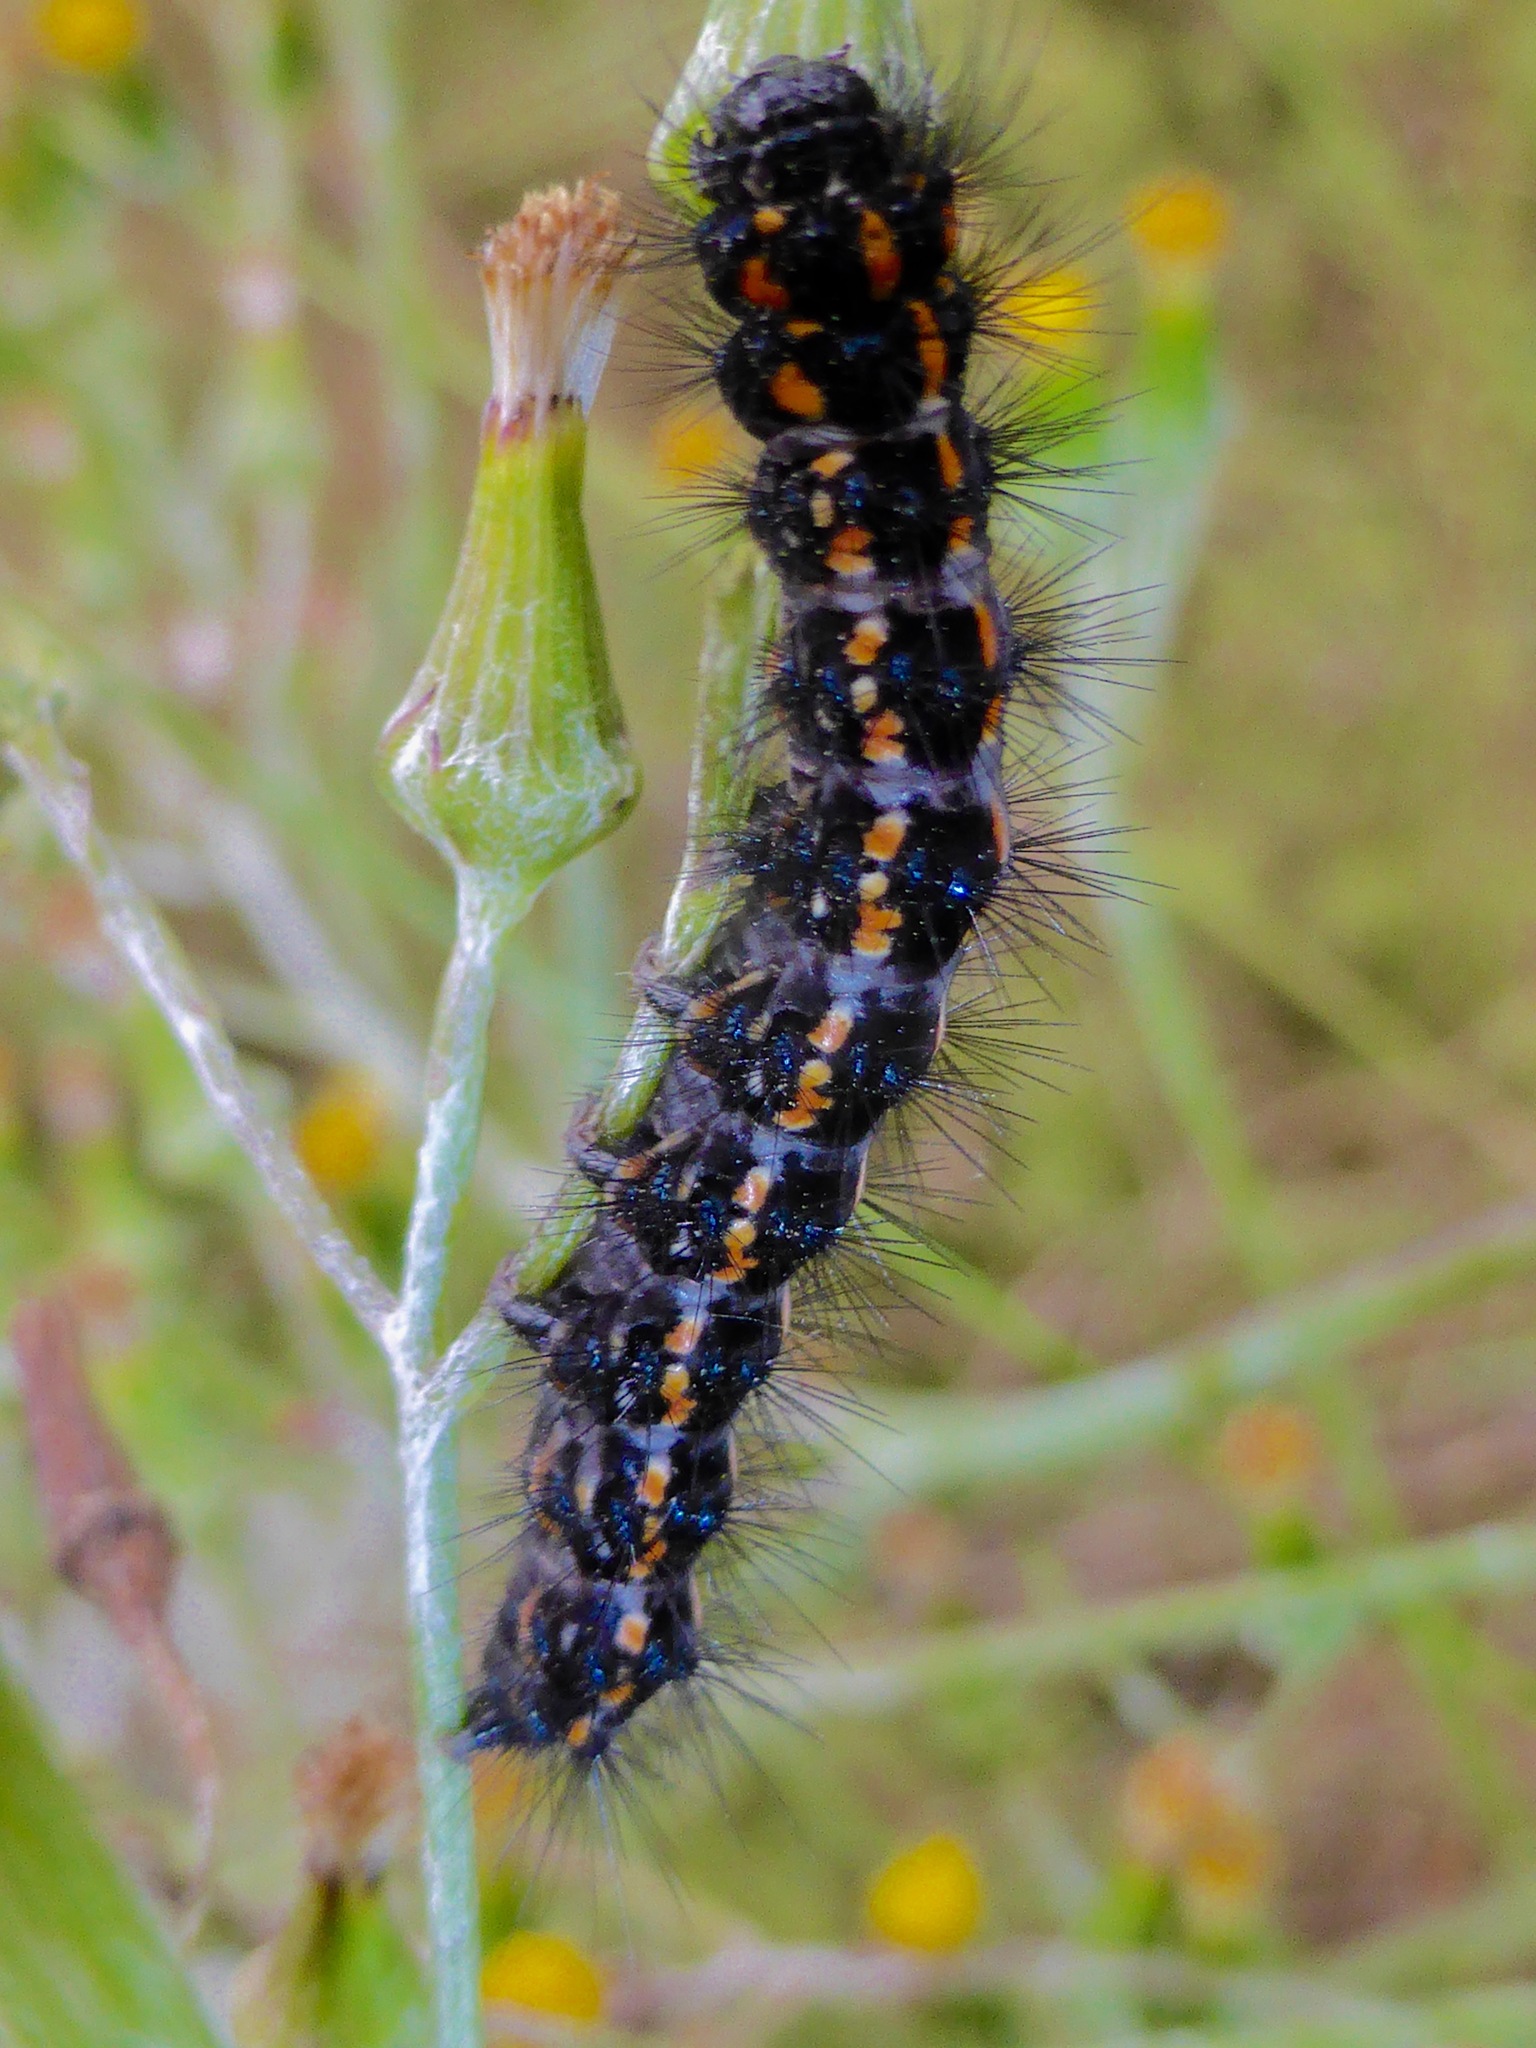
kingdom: Animalia
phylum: Arthropoda
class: Insecta
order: Lepidoptera
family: Erebidae
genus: Nyctemera
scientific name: Nyctemera annulatum
